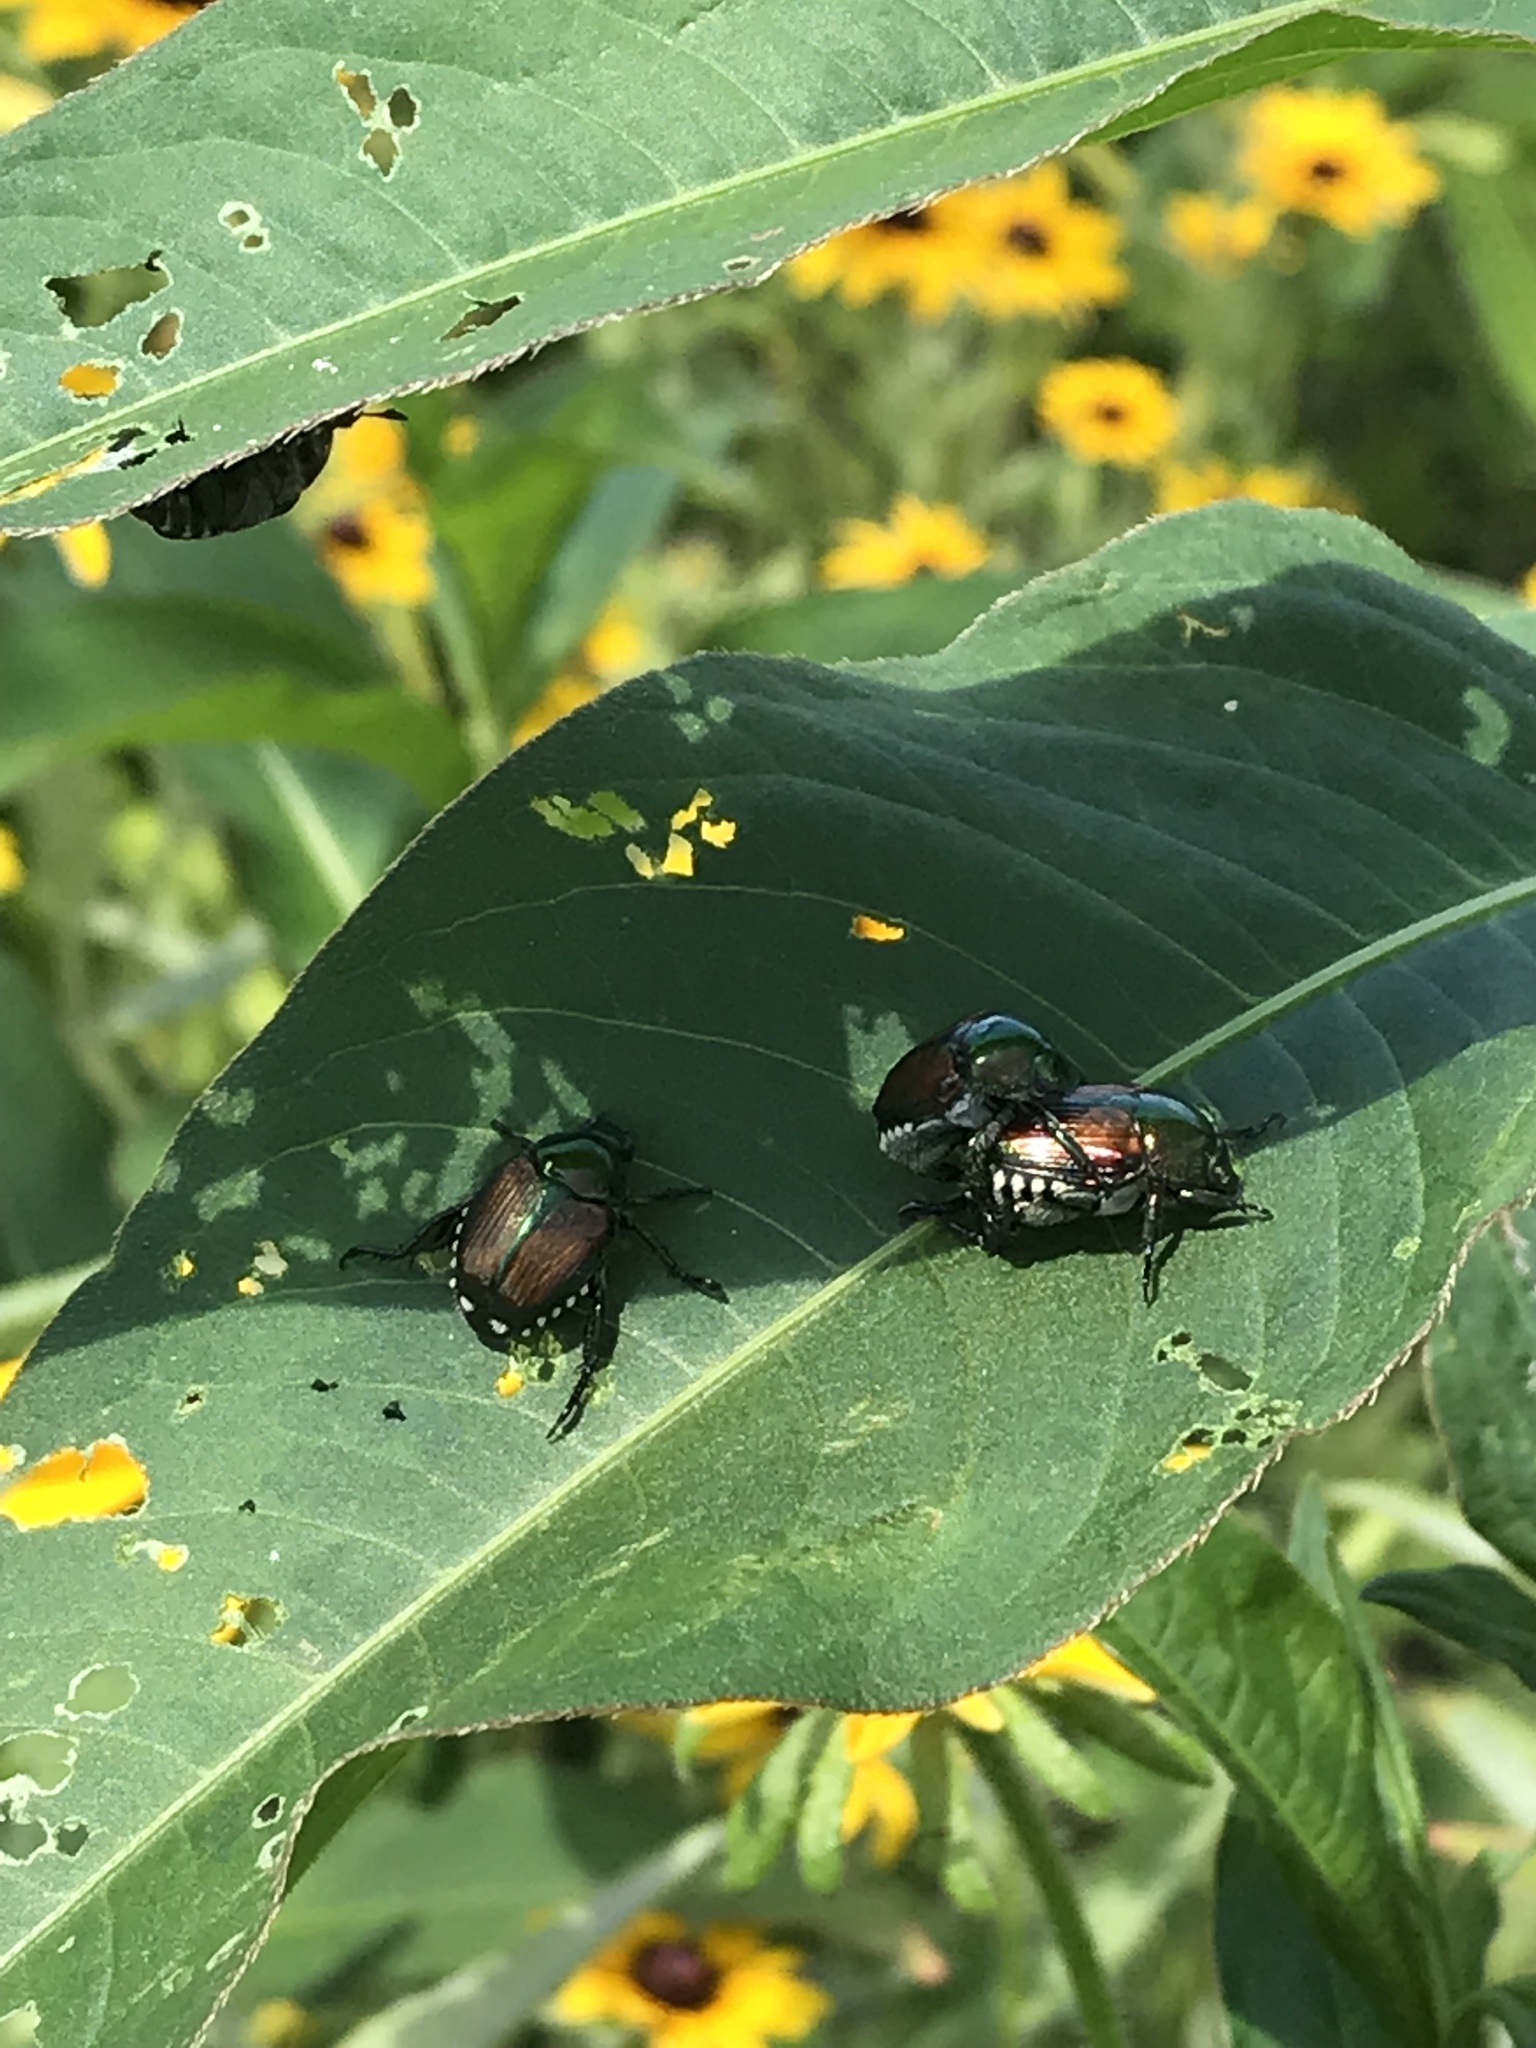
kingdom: Animalia
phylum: Arthropoda
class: Insecta
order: Coleoptera
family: Scarabaeidae
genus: Popillia
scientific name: Popillia japonica
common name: Japanese beetle
